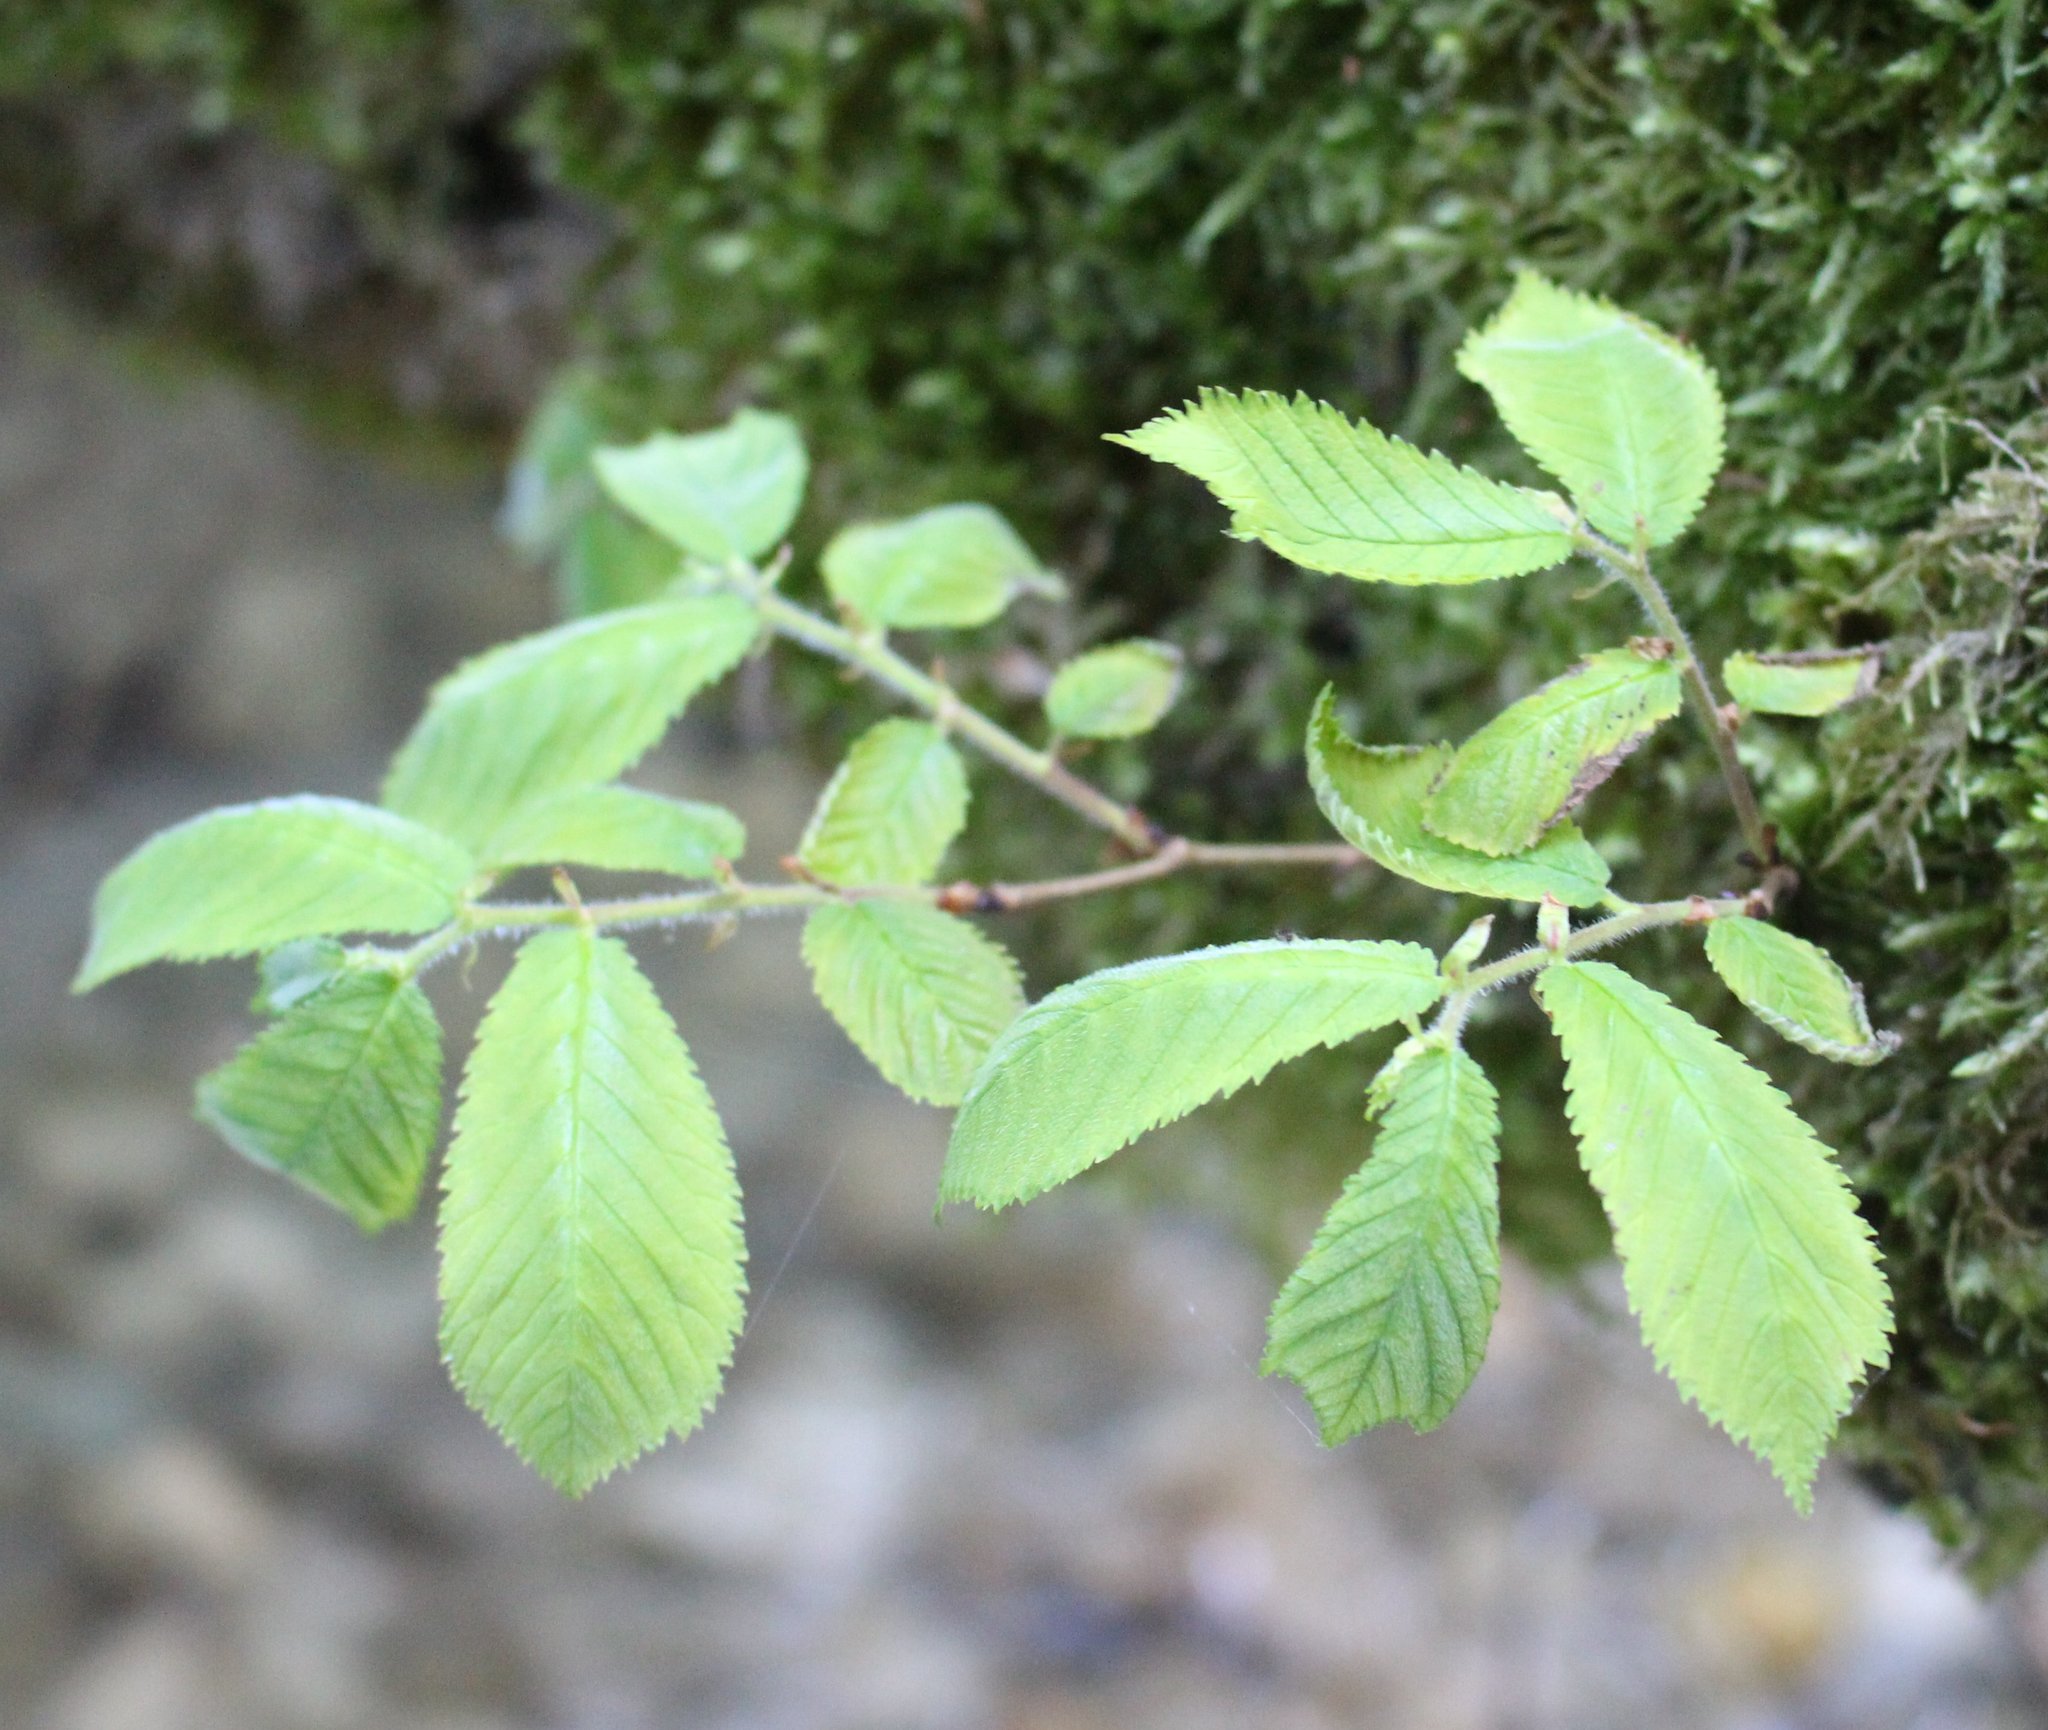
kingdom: Plantae
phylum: Tracheophyta
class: Magnoliopsida
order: Rosales
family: Ulmaceae
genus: Ulmus
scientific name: Ulmus glabra
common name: Wych elm
